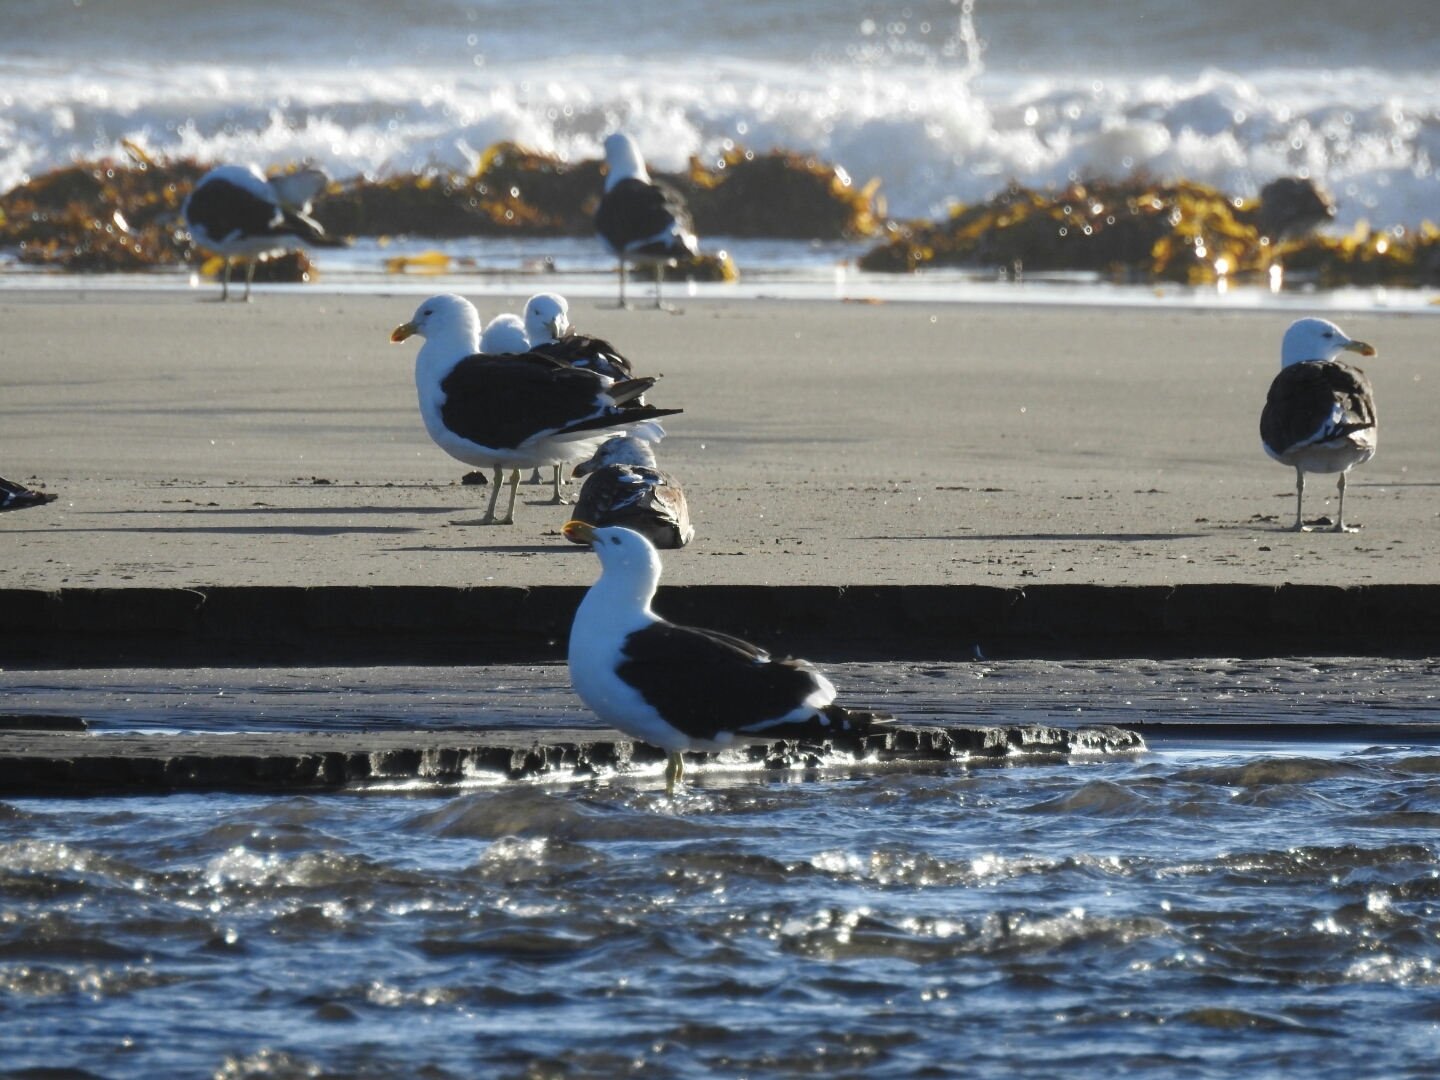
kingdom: Animalia
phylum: Chordata
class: Aves
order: Charadriiformes
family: Laridae
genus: Larus
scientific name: Larus dominicanus
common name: Kelp gull
